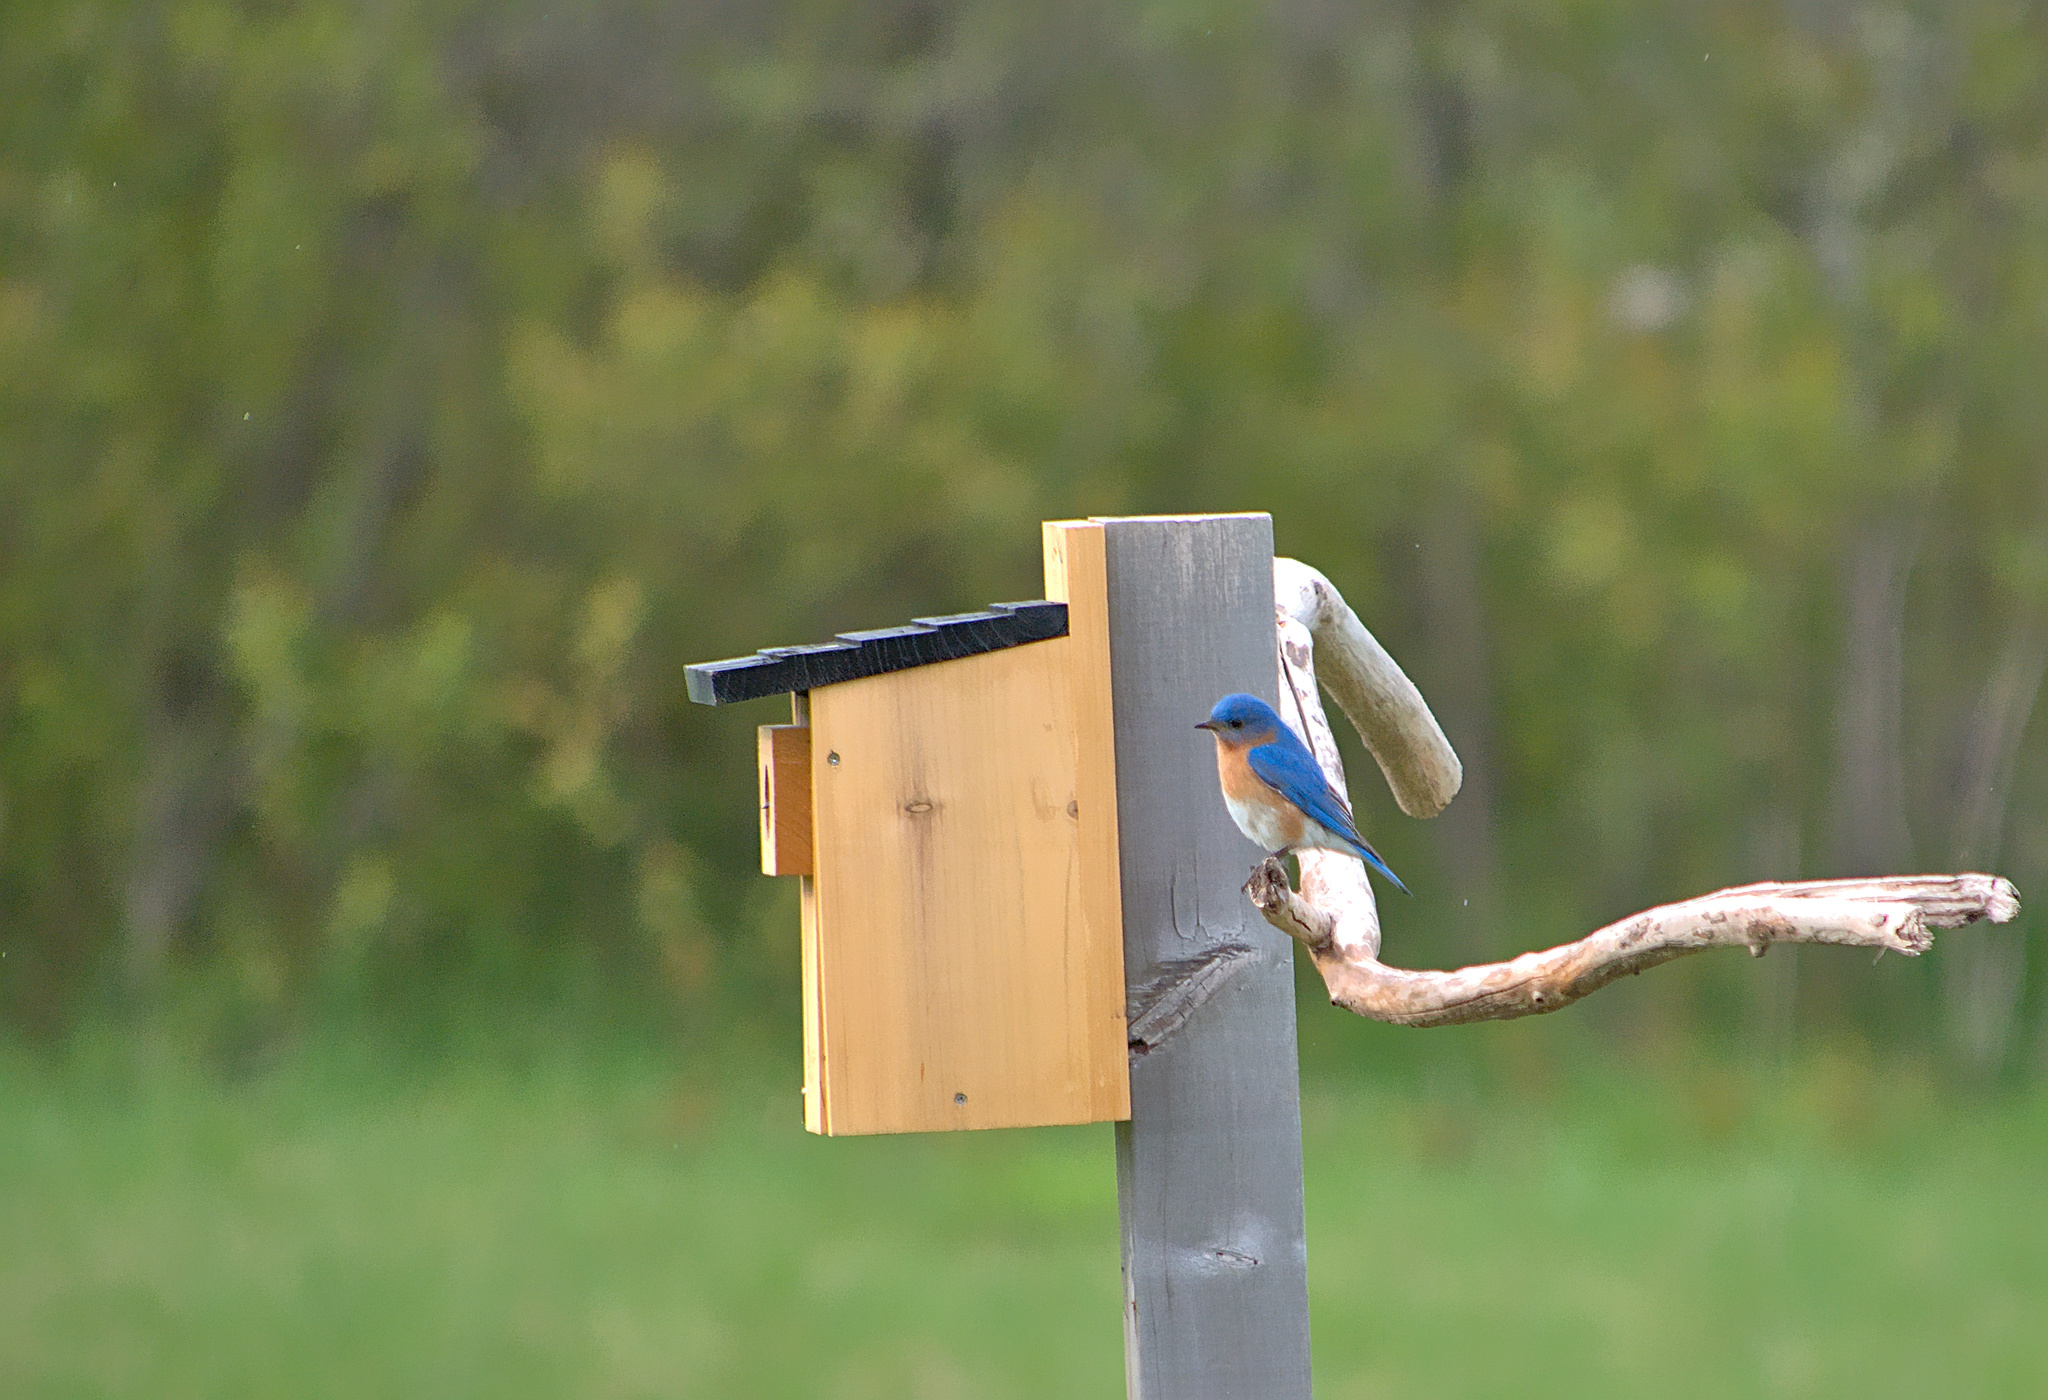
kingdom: Animalia
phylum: Chordata
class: Aves
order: Passeriformes
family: Turdidae
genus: Sialia
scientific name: Sialia sialis
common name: Eastern bluebird
